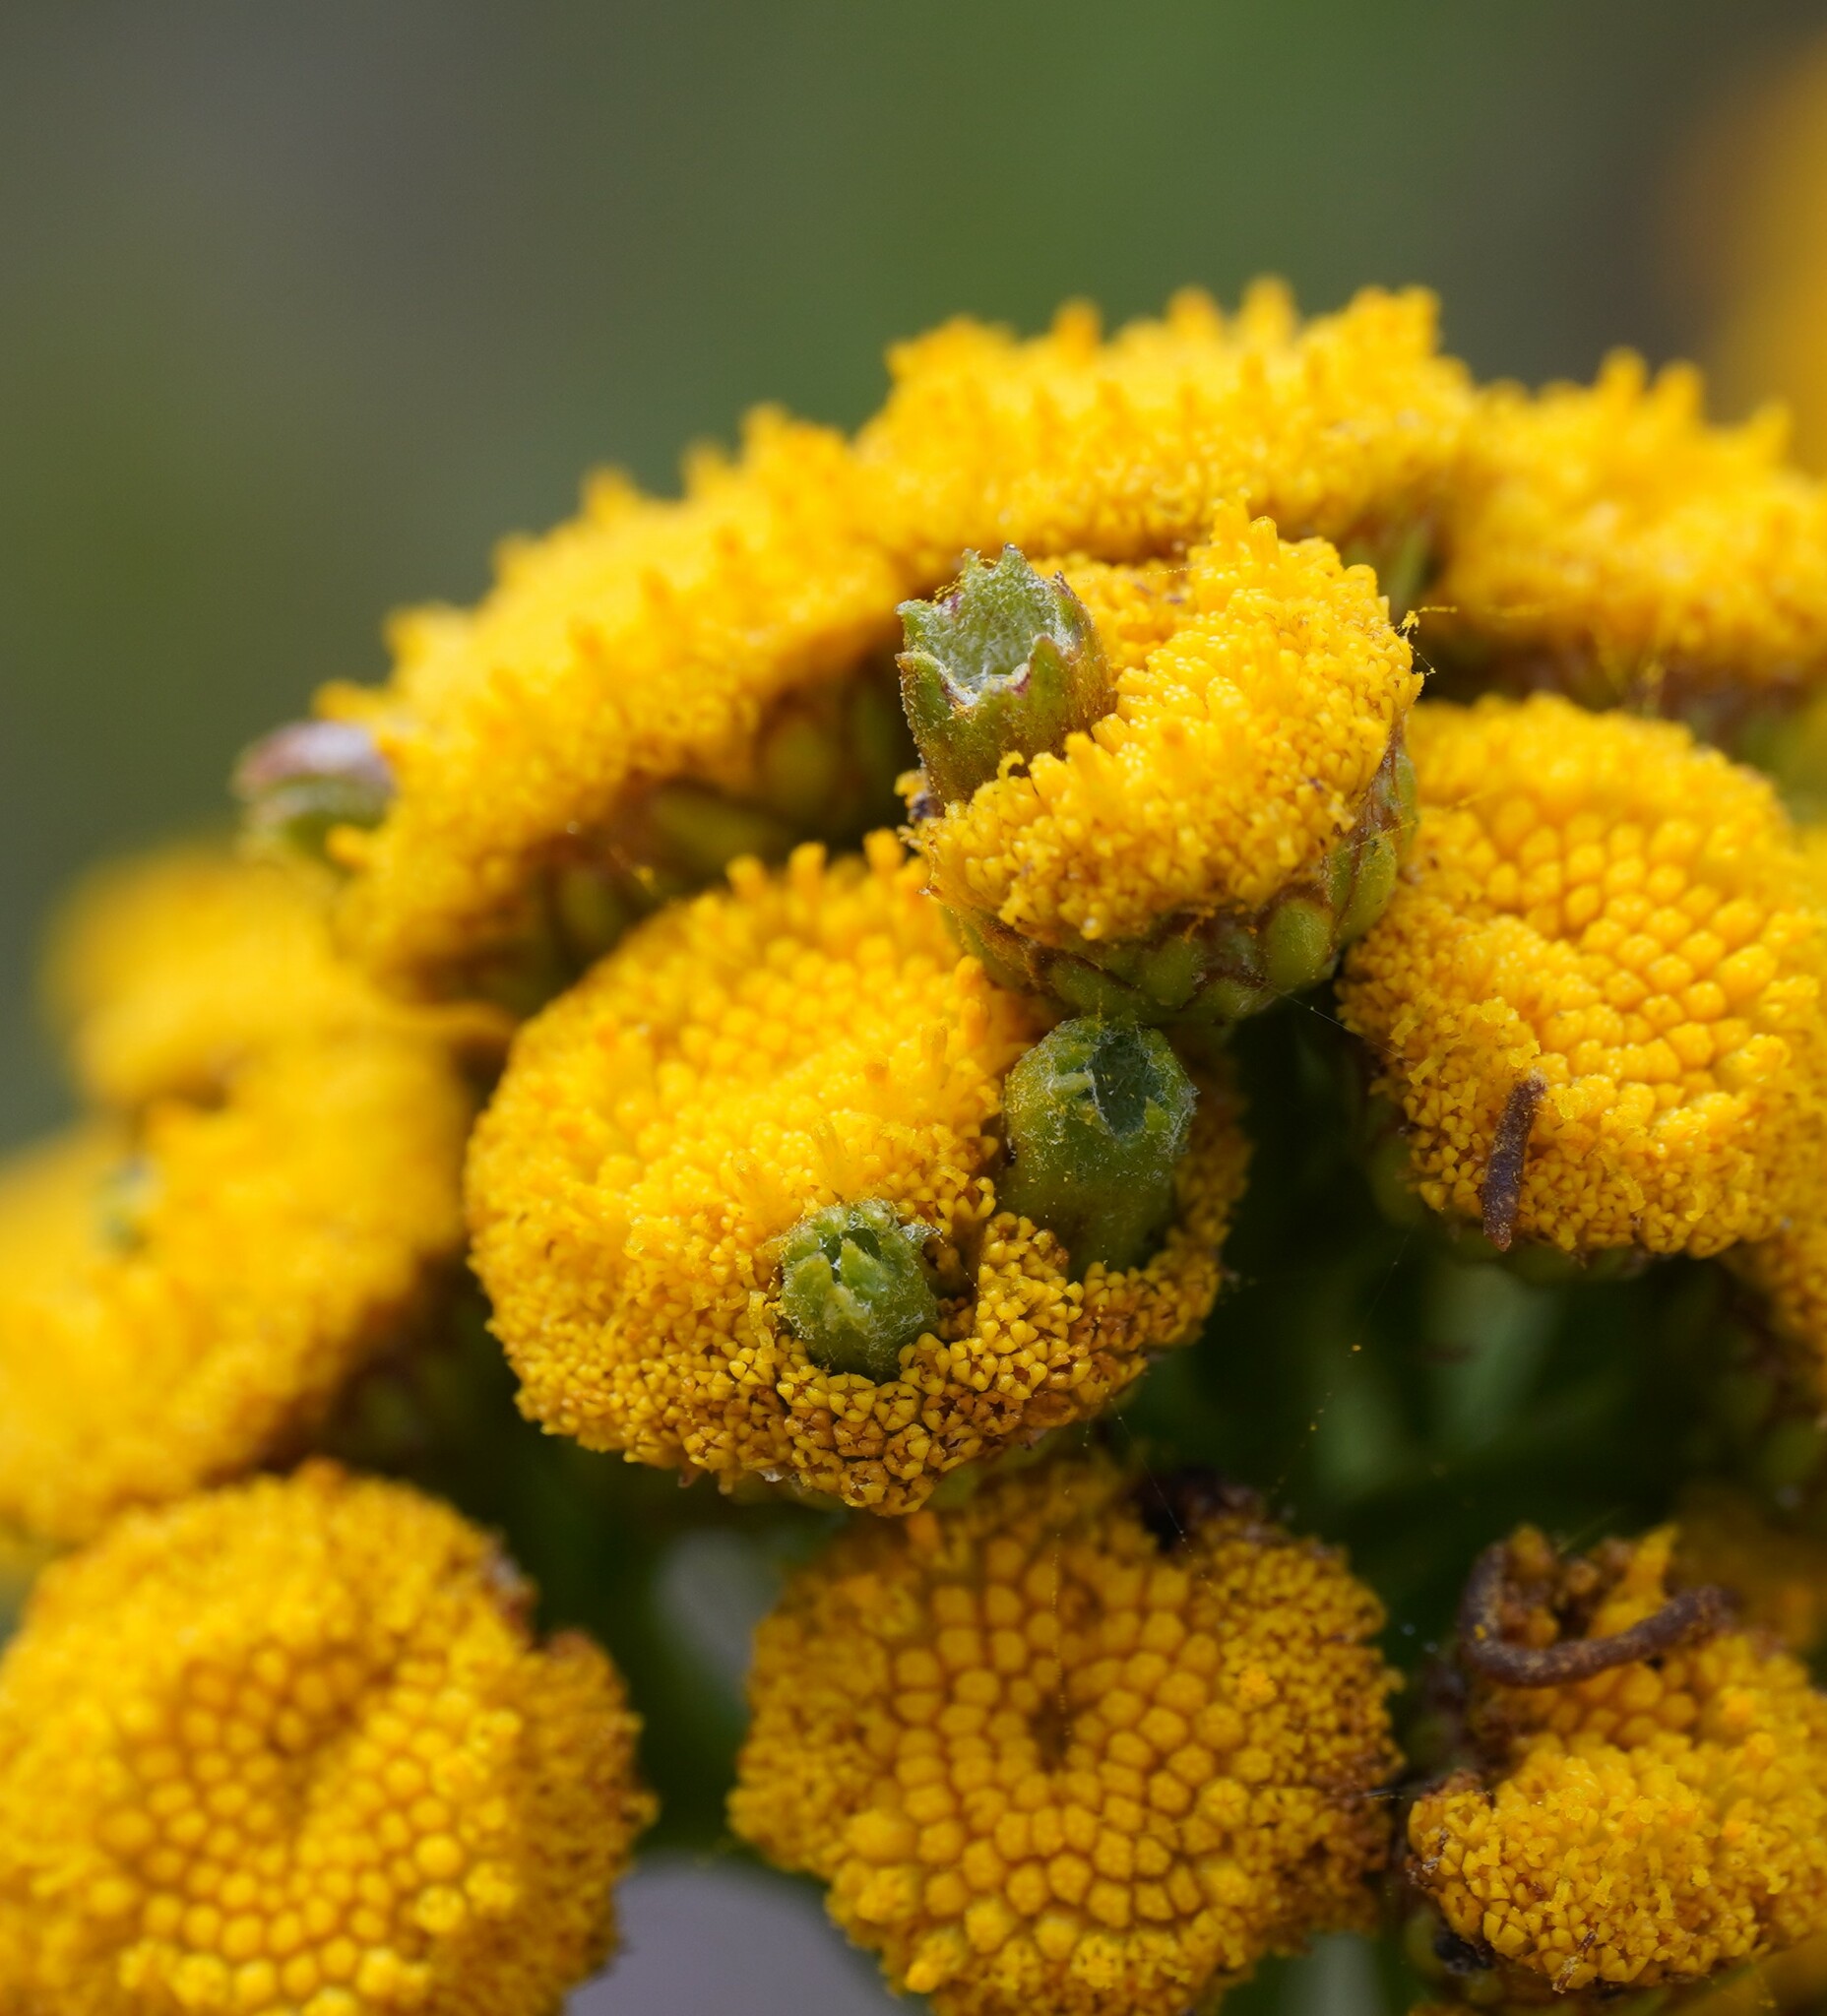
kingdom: Animalia
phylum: Arthropoda
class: Insecta
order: Diptera
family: Cecidomyiidae
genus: Rhopalomyia
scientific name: Rhopalomyia tanaceticolus
